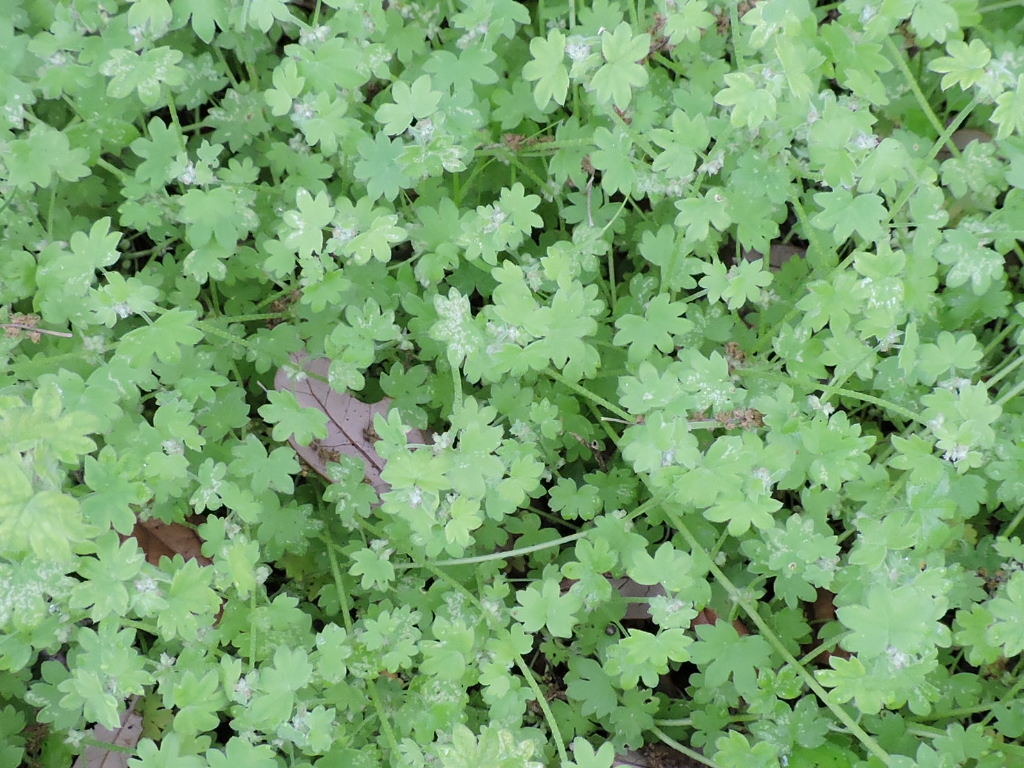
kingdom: Plantae
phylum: Tracheophyta
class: Magnoliopsida
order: Apiales
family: Apiaceae
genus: Bowlesia
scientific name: Bowlesia incana
